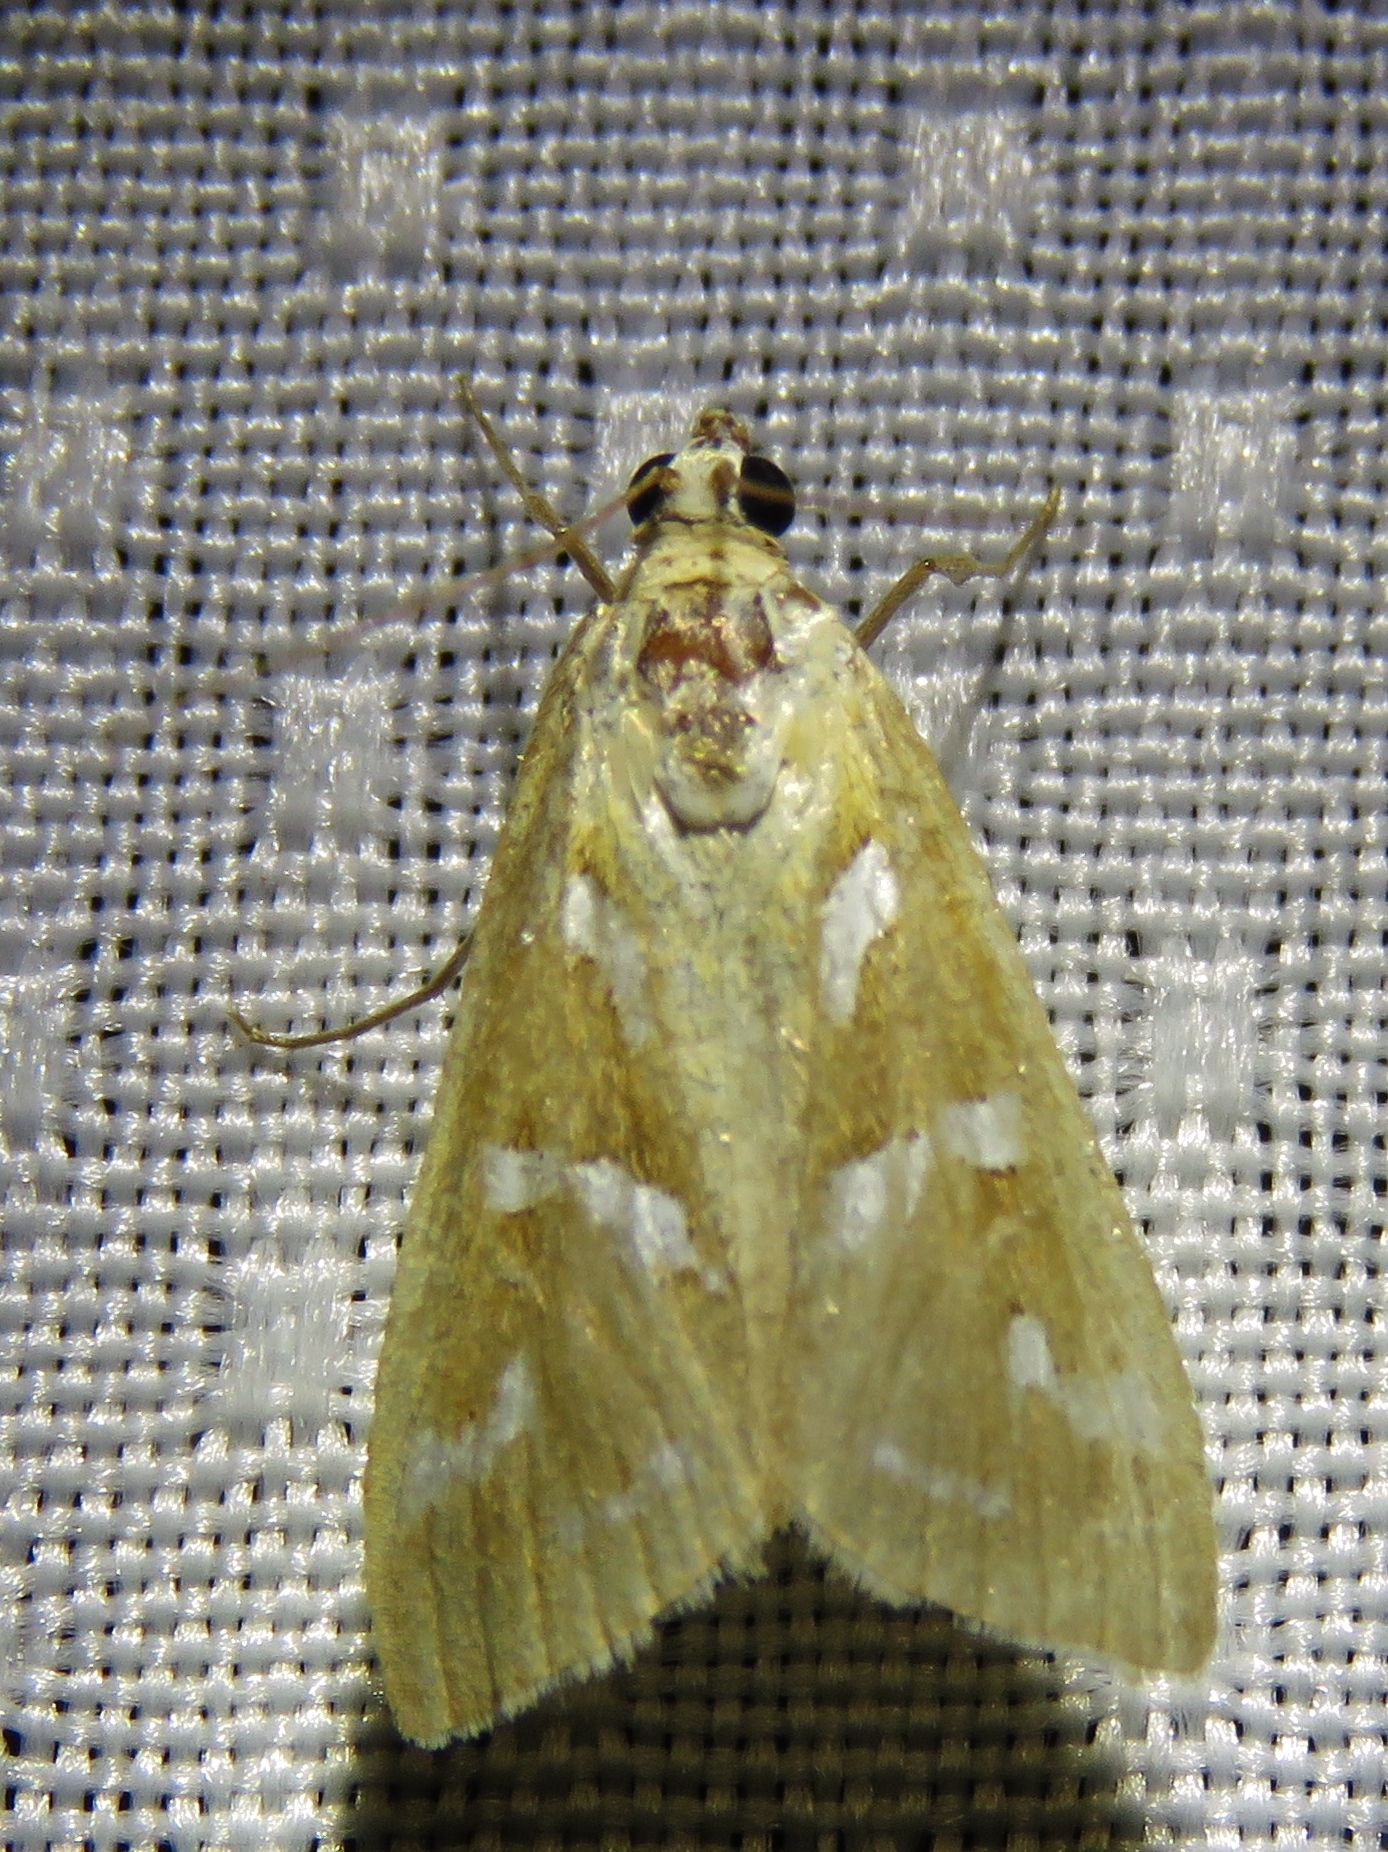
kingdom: Animalia
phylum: Arthropoda
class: Insecta
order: Lepidoptera
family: Crambidae
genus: Diastictis
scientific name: Diastictis fracturalis
